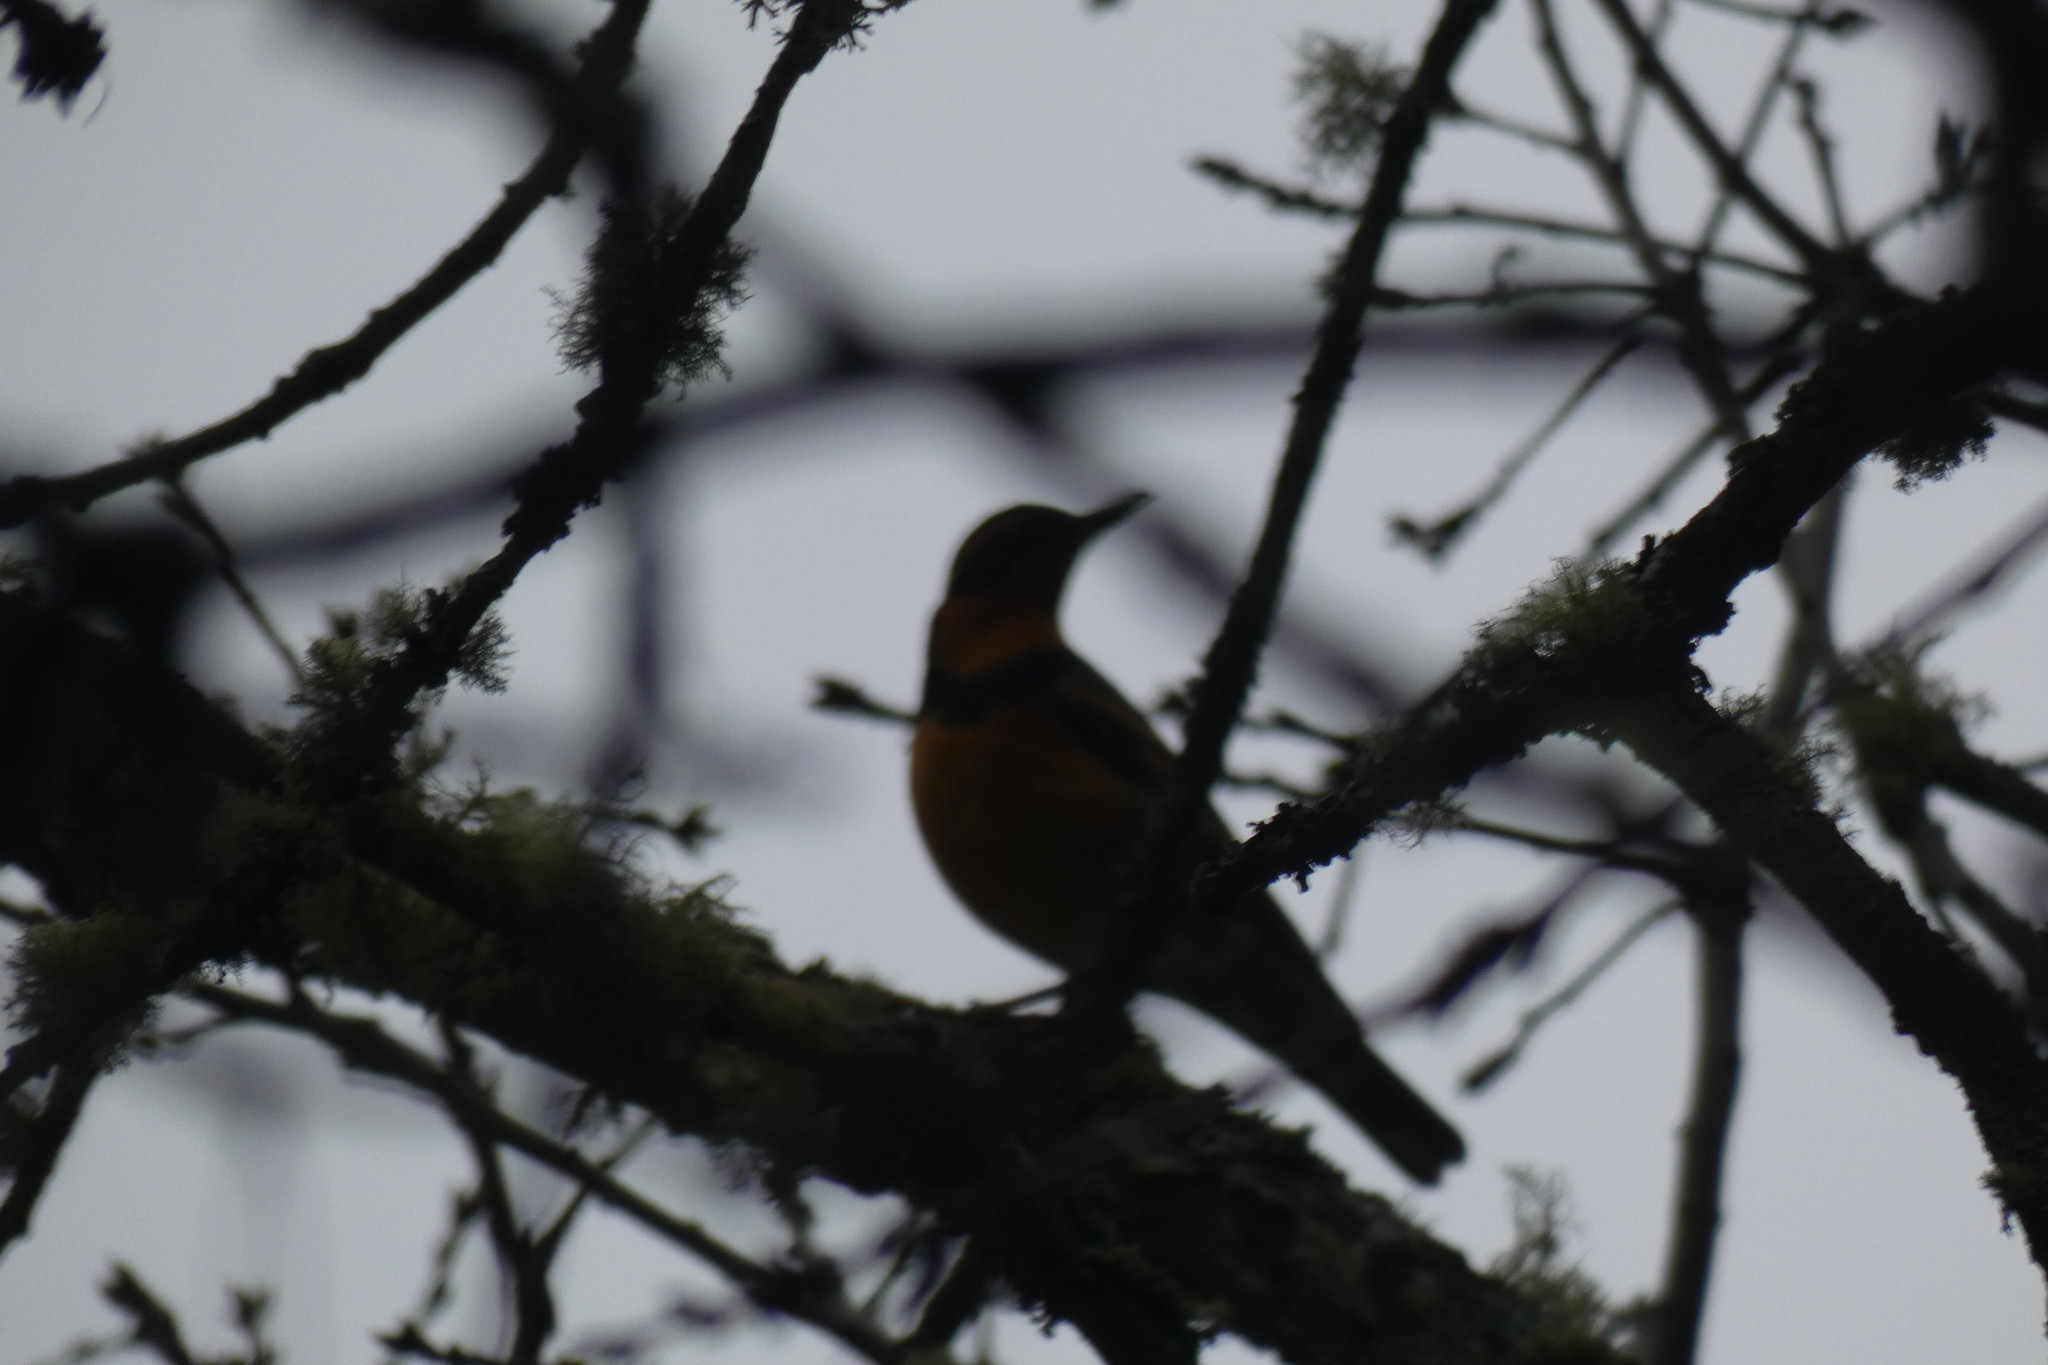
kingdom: Animalia
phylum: Chordata
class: Aves
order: Passeriformes
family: Turdidae
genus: Ixoreus
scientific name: Ixoreus naevius
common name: Varied thrush
